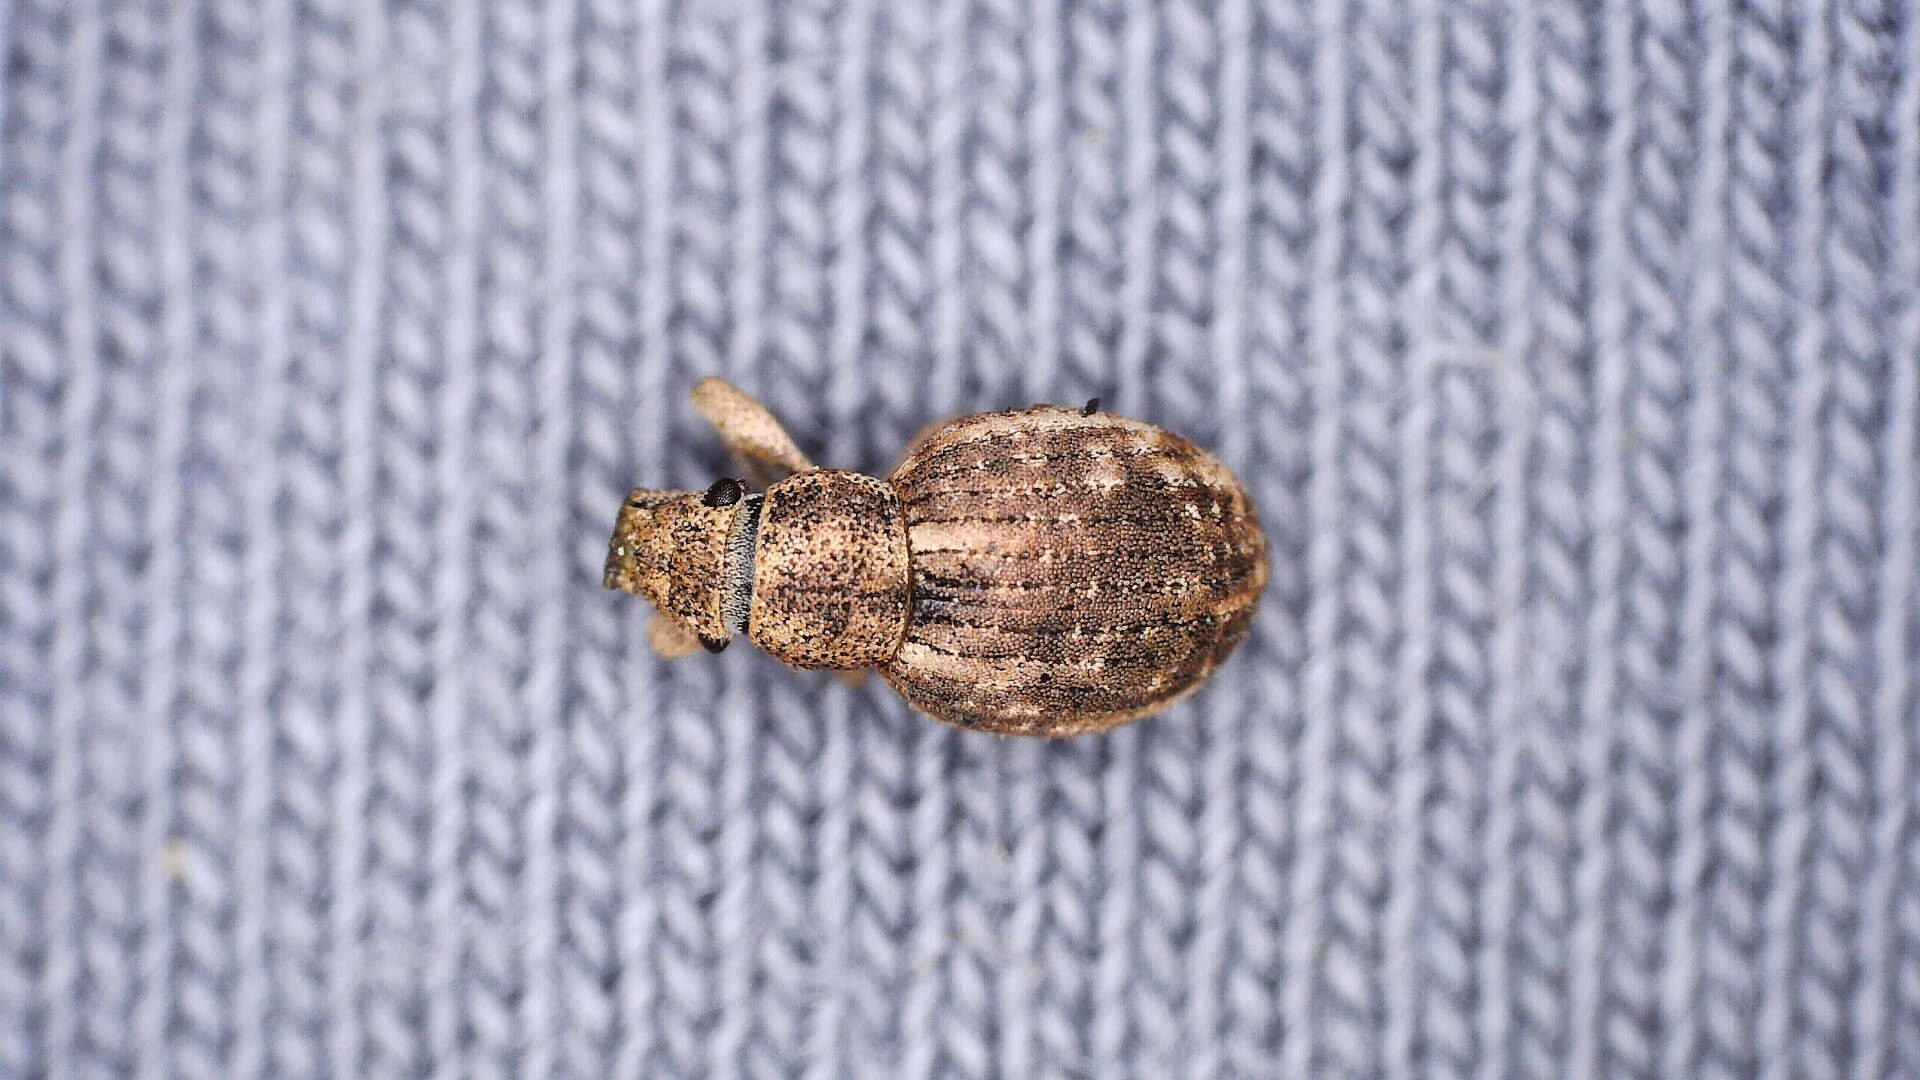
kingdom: Animalia
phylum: Arthropoda
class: Insecta
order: Coleoptera
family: Curculionidae
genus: Strophosoma
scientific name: Strophosoma capitatum
